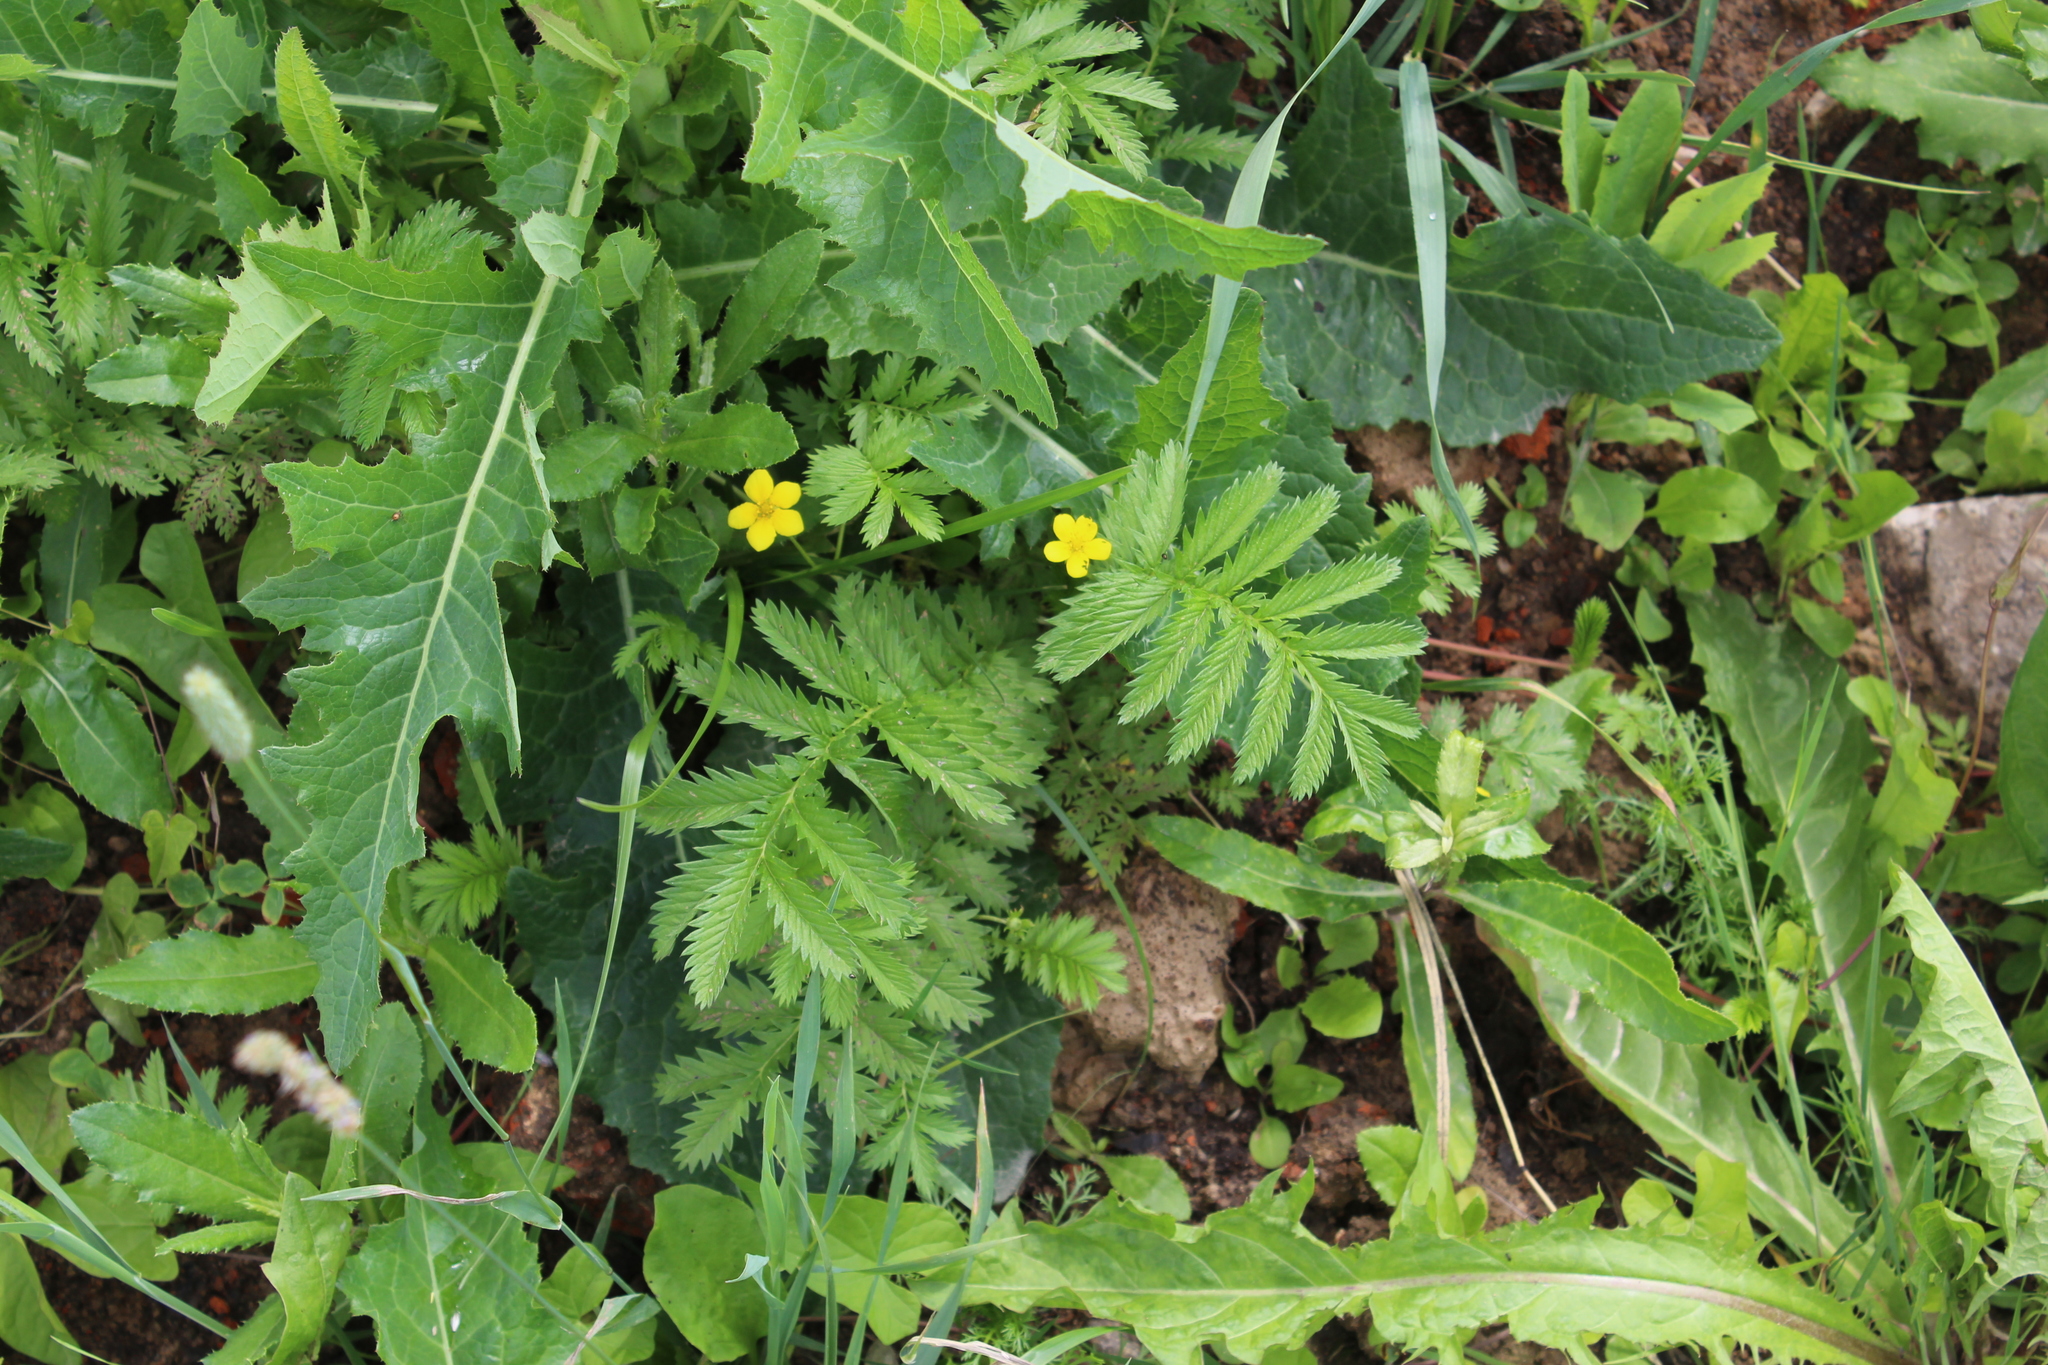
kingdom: Plantae
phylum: Tracheophyta
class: Magnoliopsida
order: Rosales
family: Rosaceae
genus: Argentina
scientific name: Argentina anserina
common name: Common silverweed
